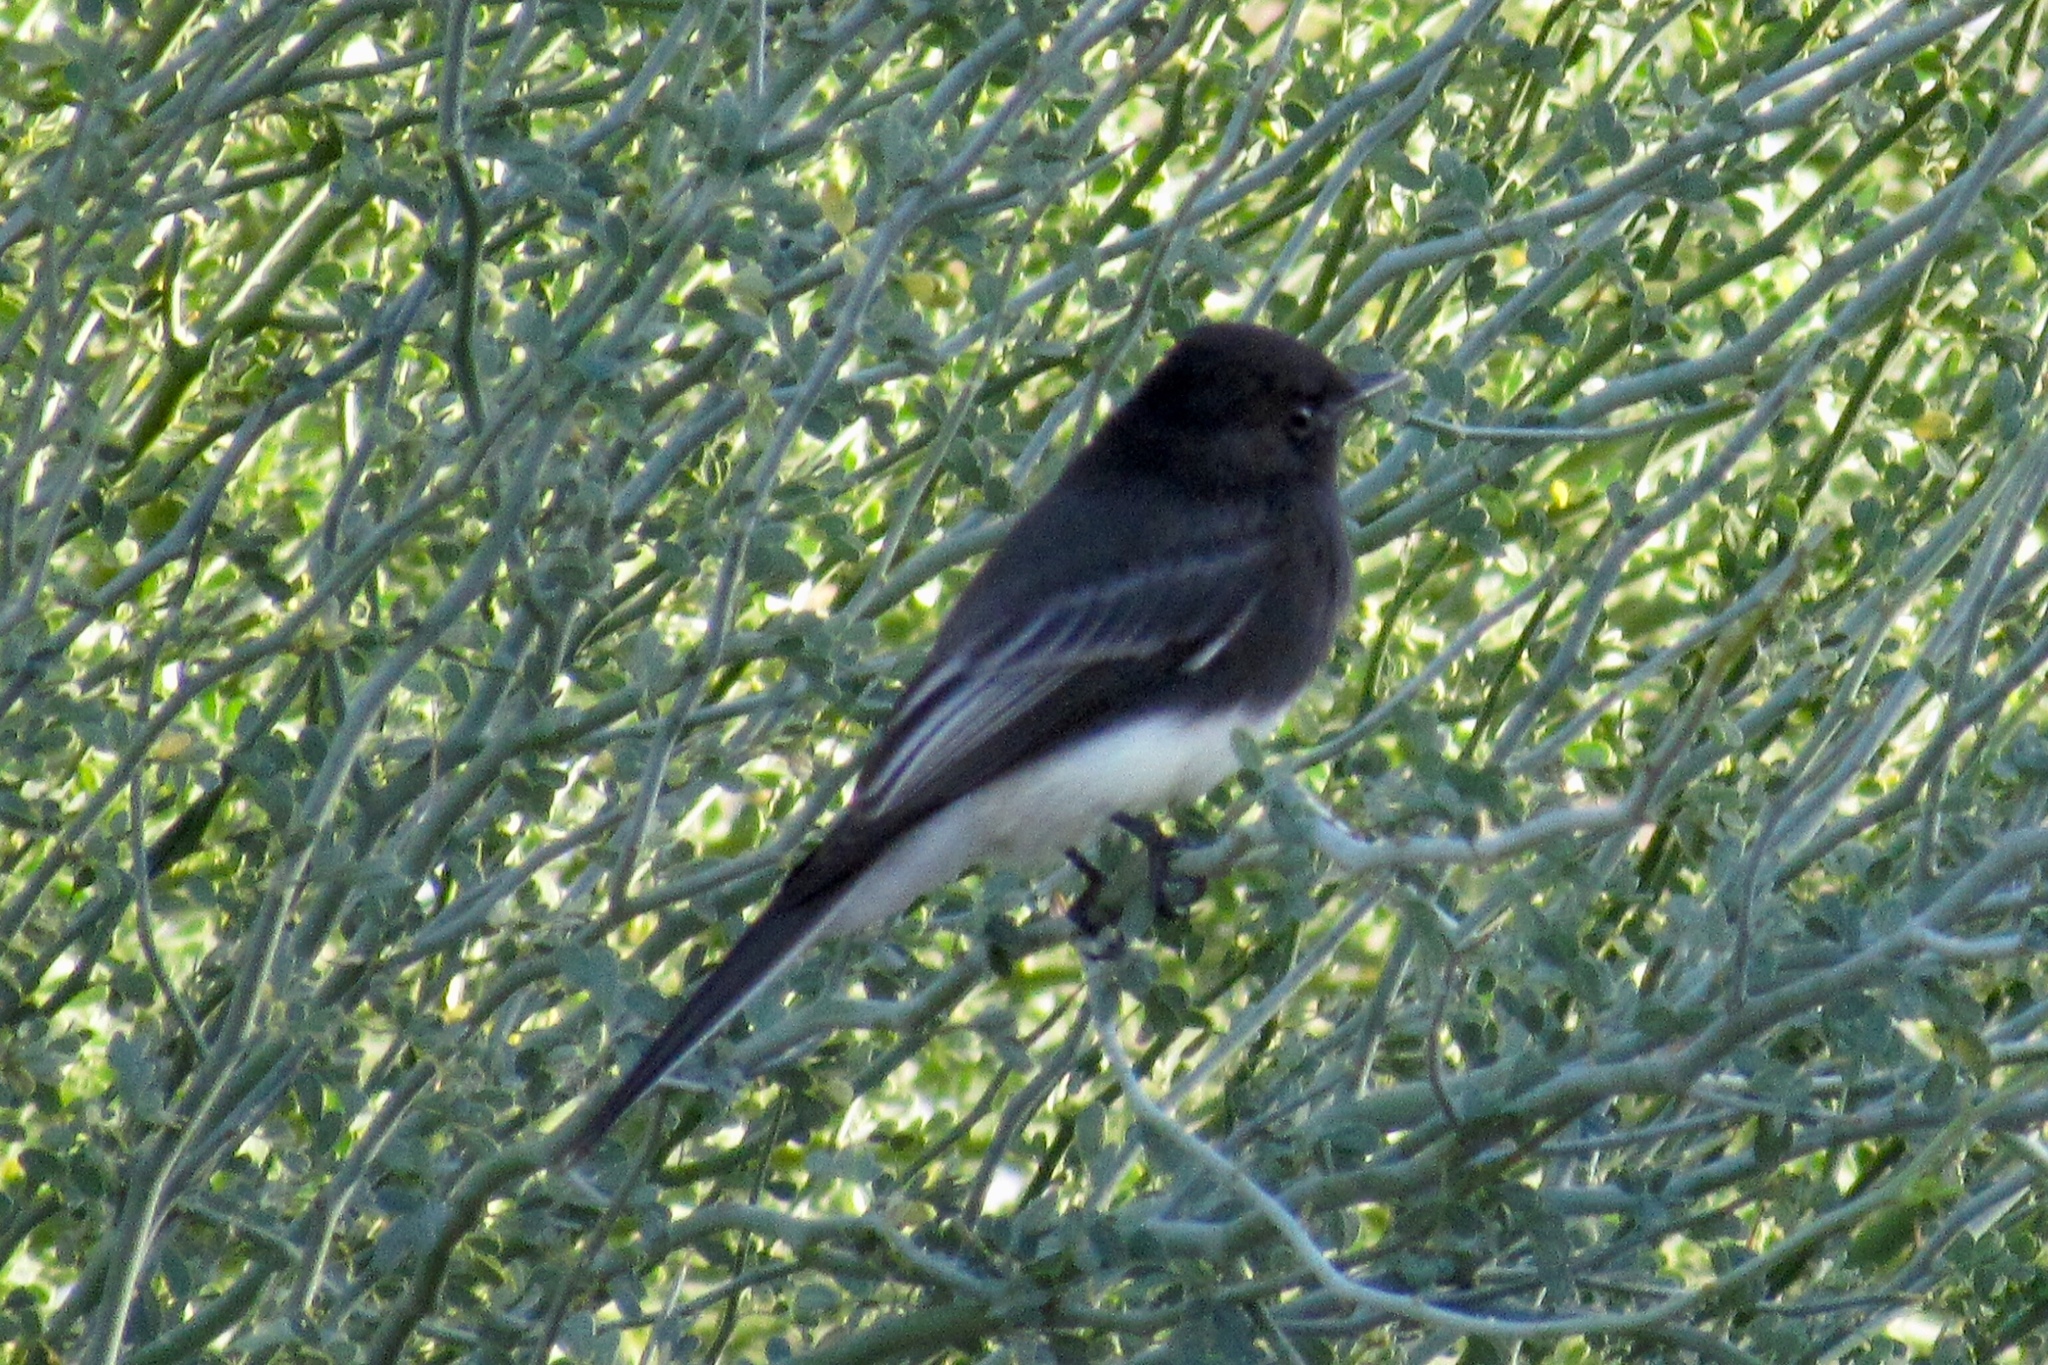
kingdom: Animalia
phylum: Chordata
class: Aves
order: Passeriformes
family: Tyrannidae
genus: Sayornis
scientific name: Sayornis nigricans
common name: Black phoebe
